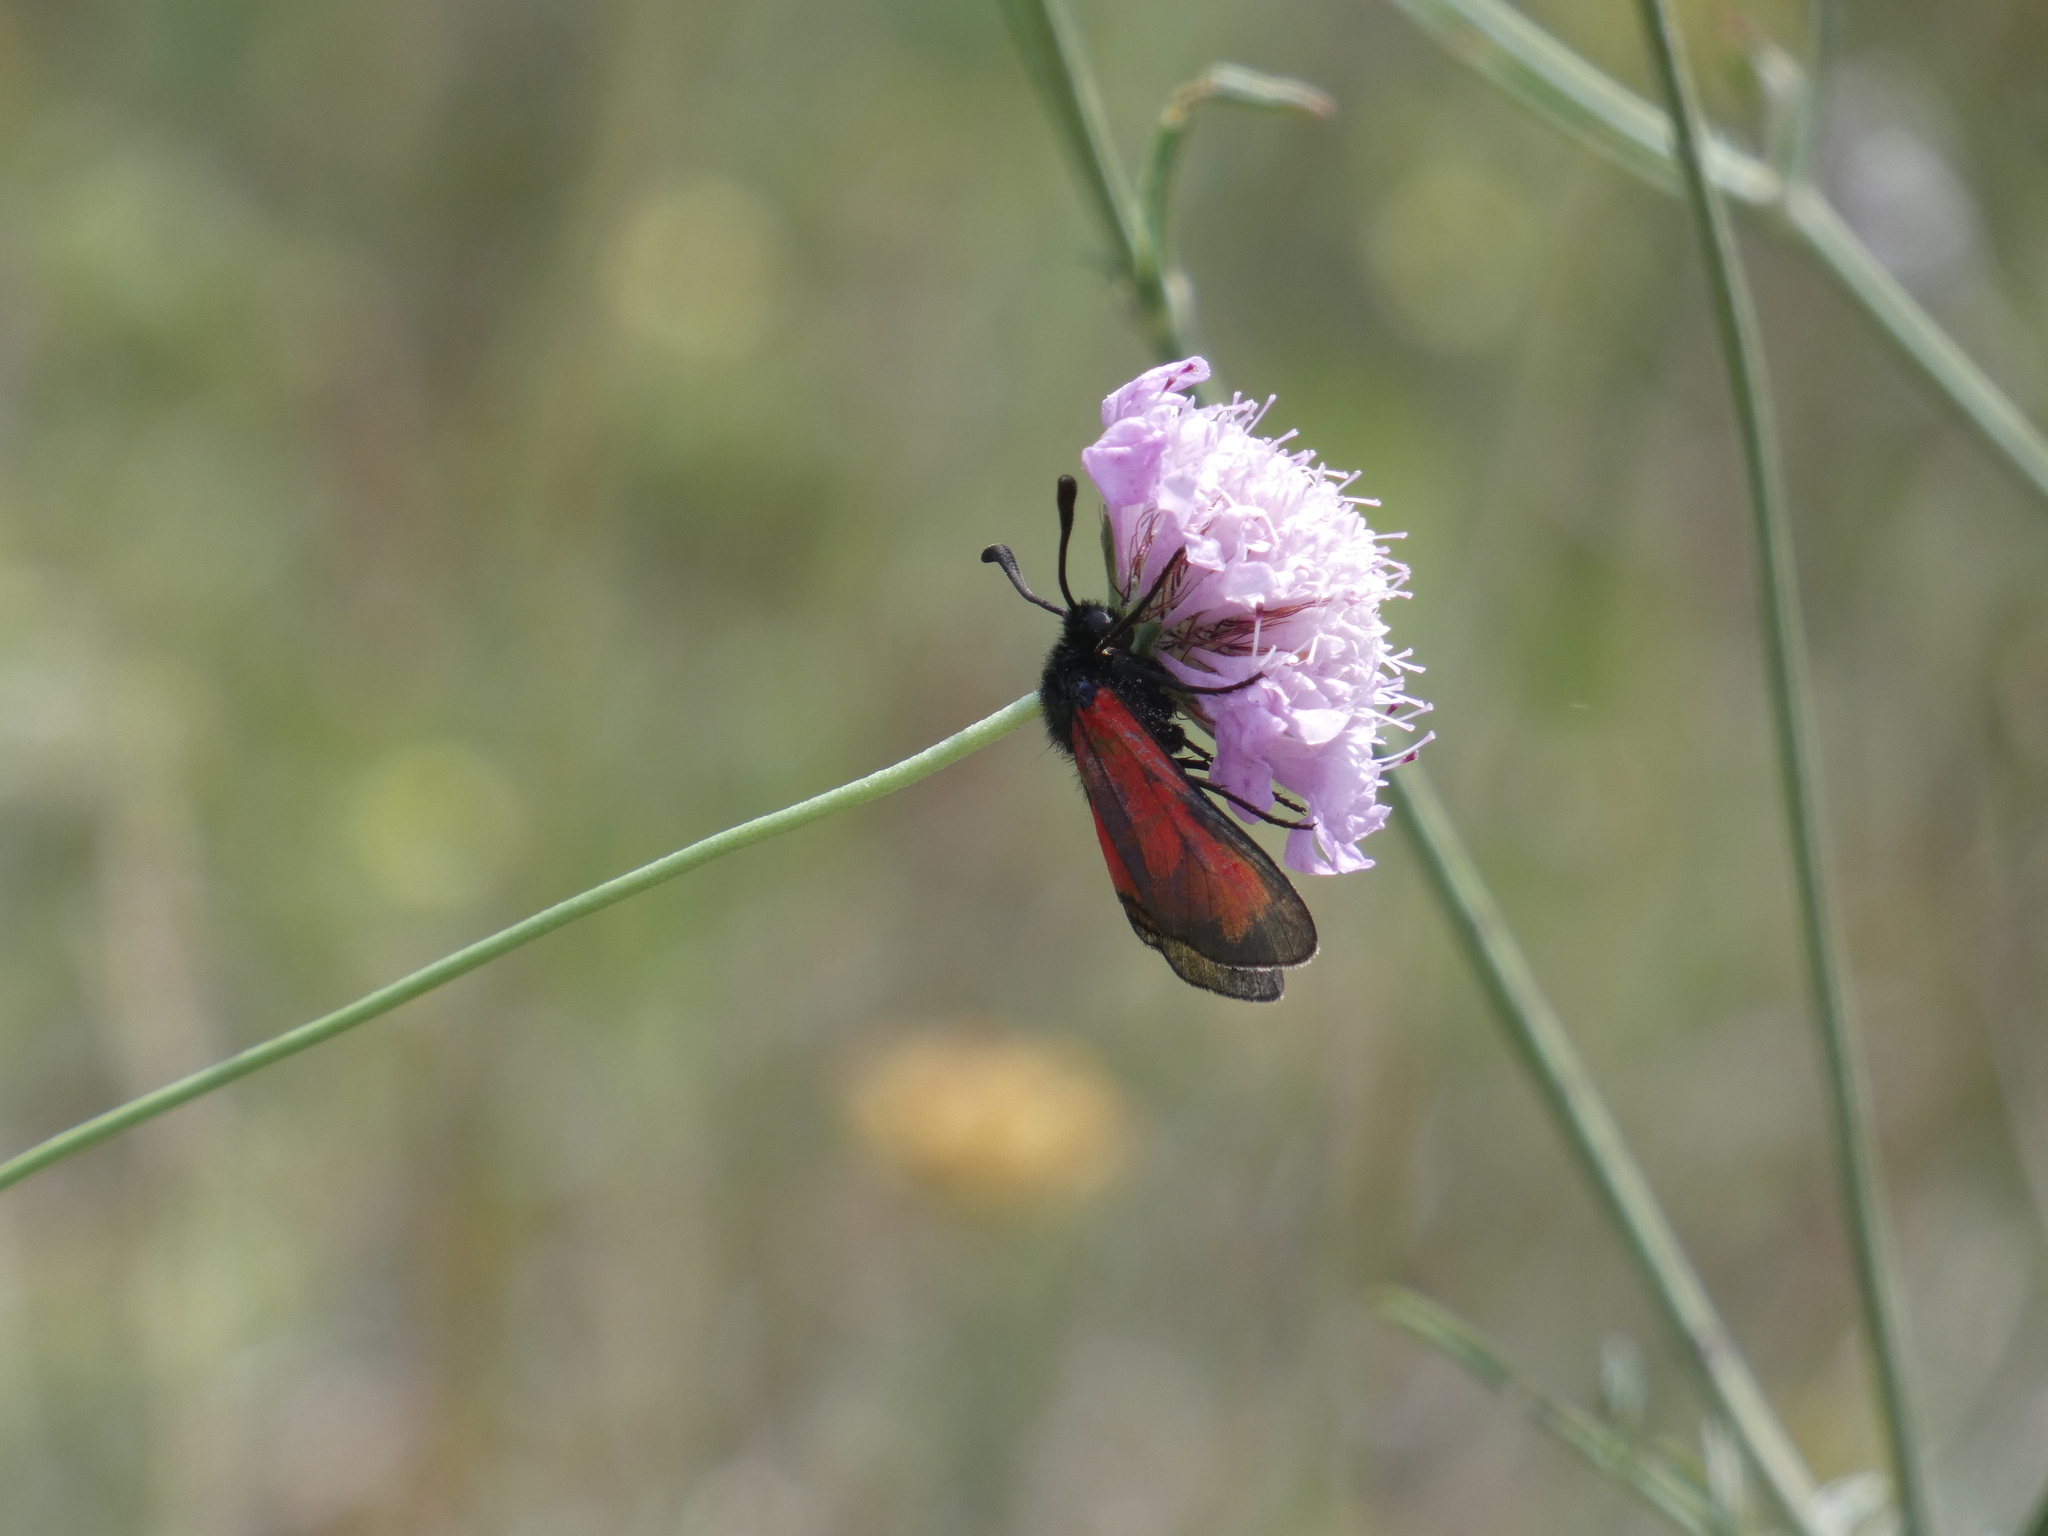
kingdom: Animalia
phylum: Arthropoda
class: Insecta
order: Lepidoptera
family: Zygaenidae
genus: Zygaena
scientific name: Zygaena erythrus
